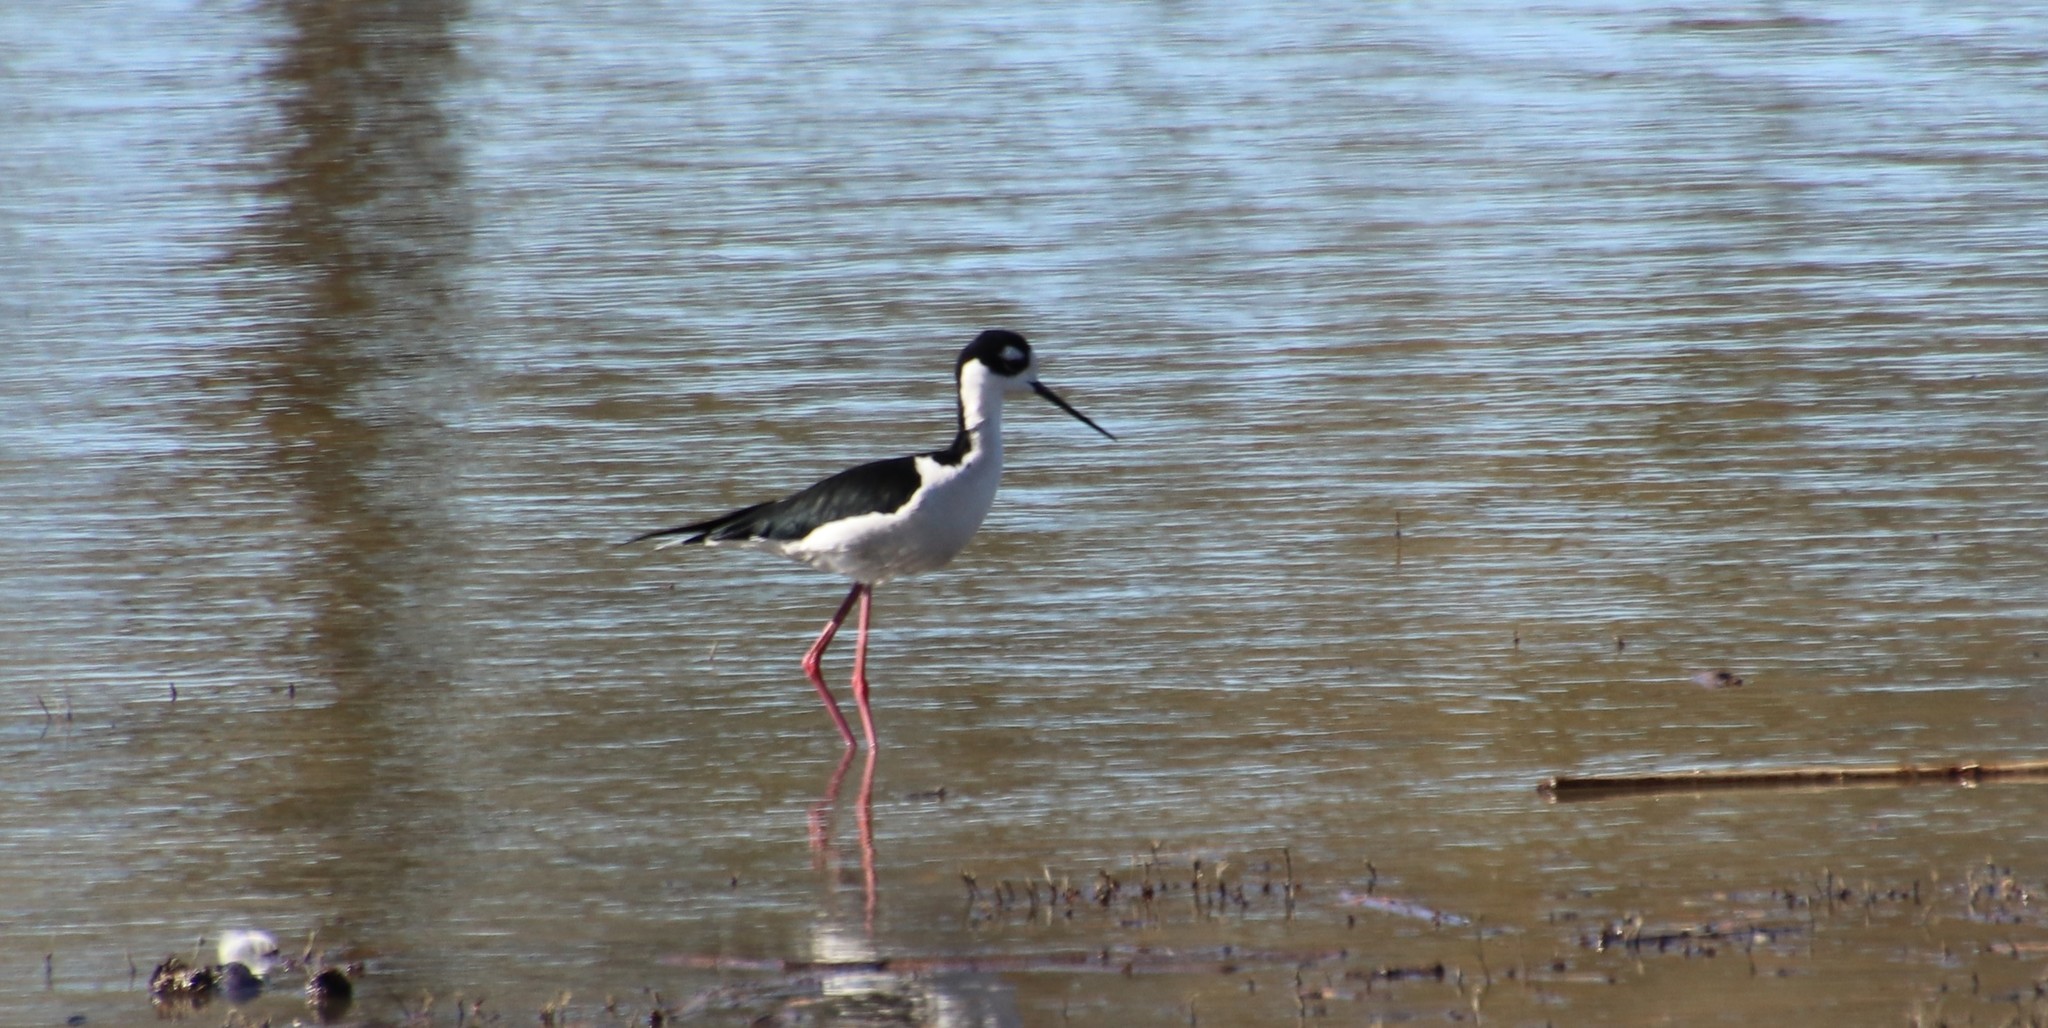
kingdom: Animalia
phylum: Chordata
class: Aves
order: Charadriiformes
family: Recurvirostridae
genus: Himantopus
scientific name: Himantopus mexicanus
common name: Black-necked stilt
